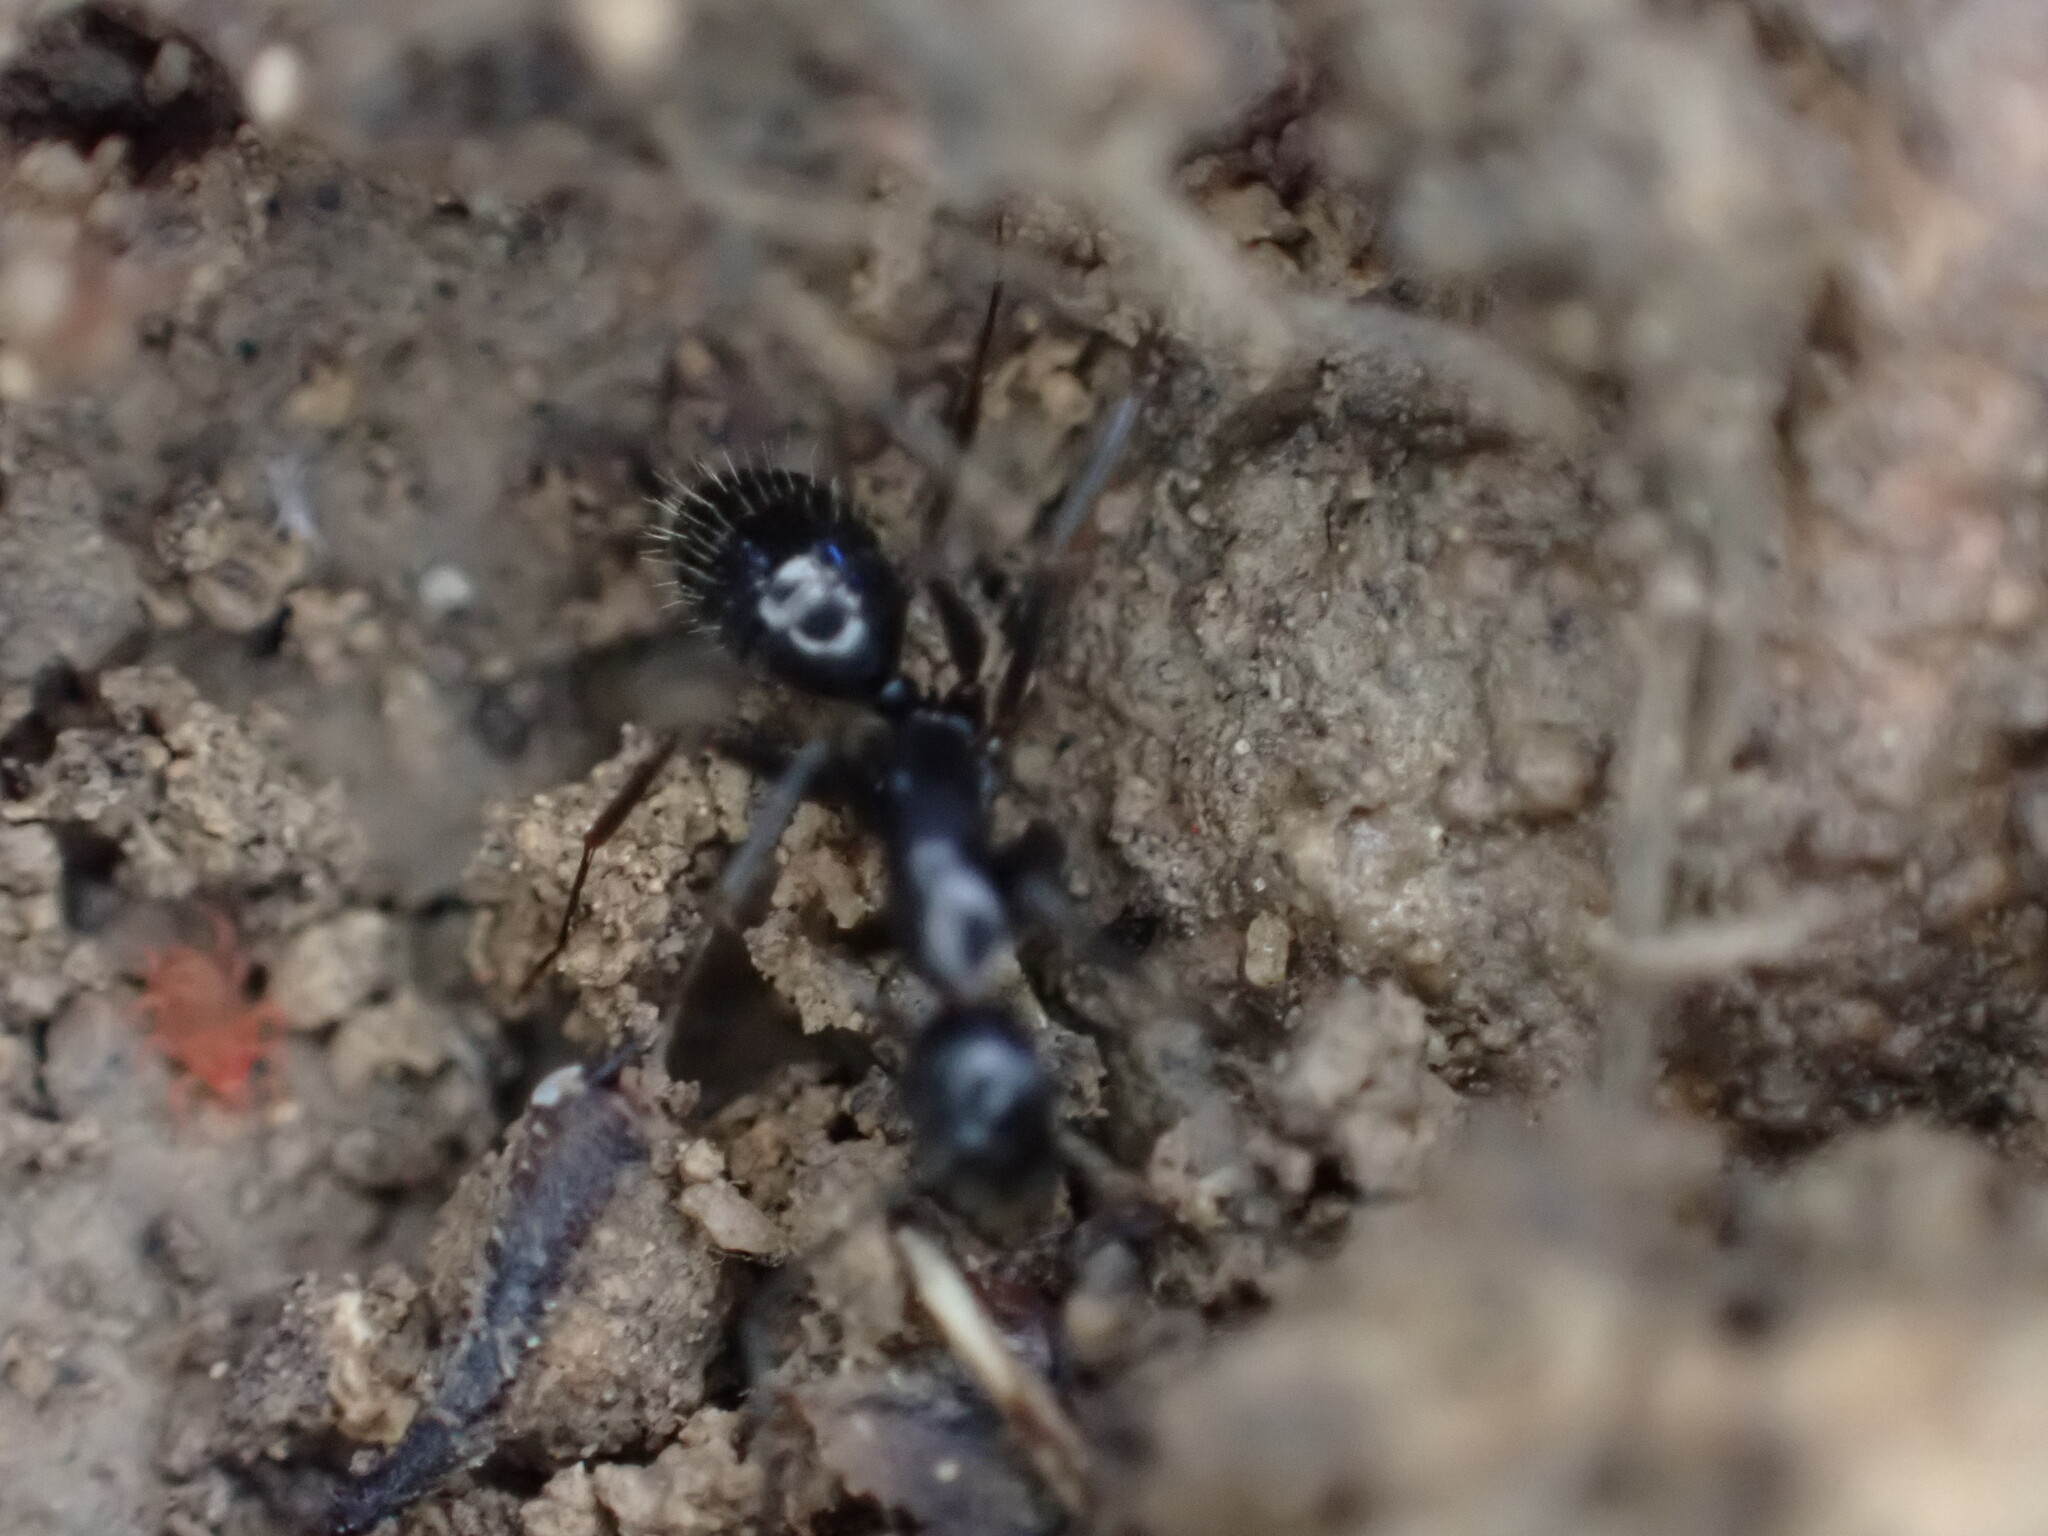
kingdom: Animalia
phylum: Arthropoda
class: Insecta
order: Hymenoptera
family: Formicidae
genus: Camponotus
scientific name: Camponotus aethiops
